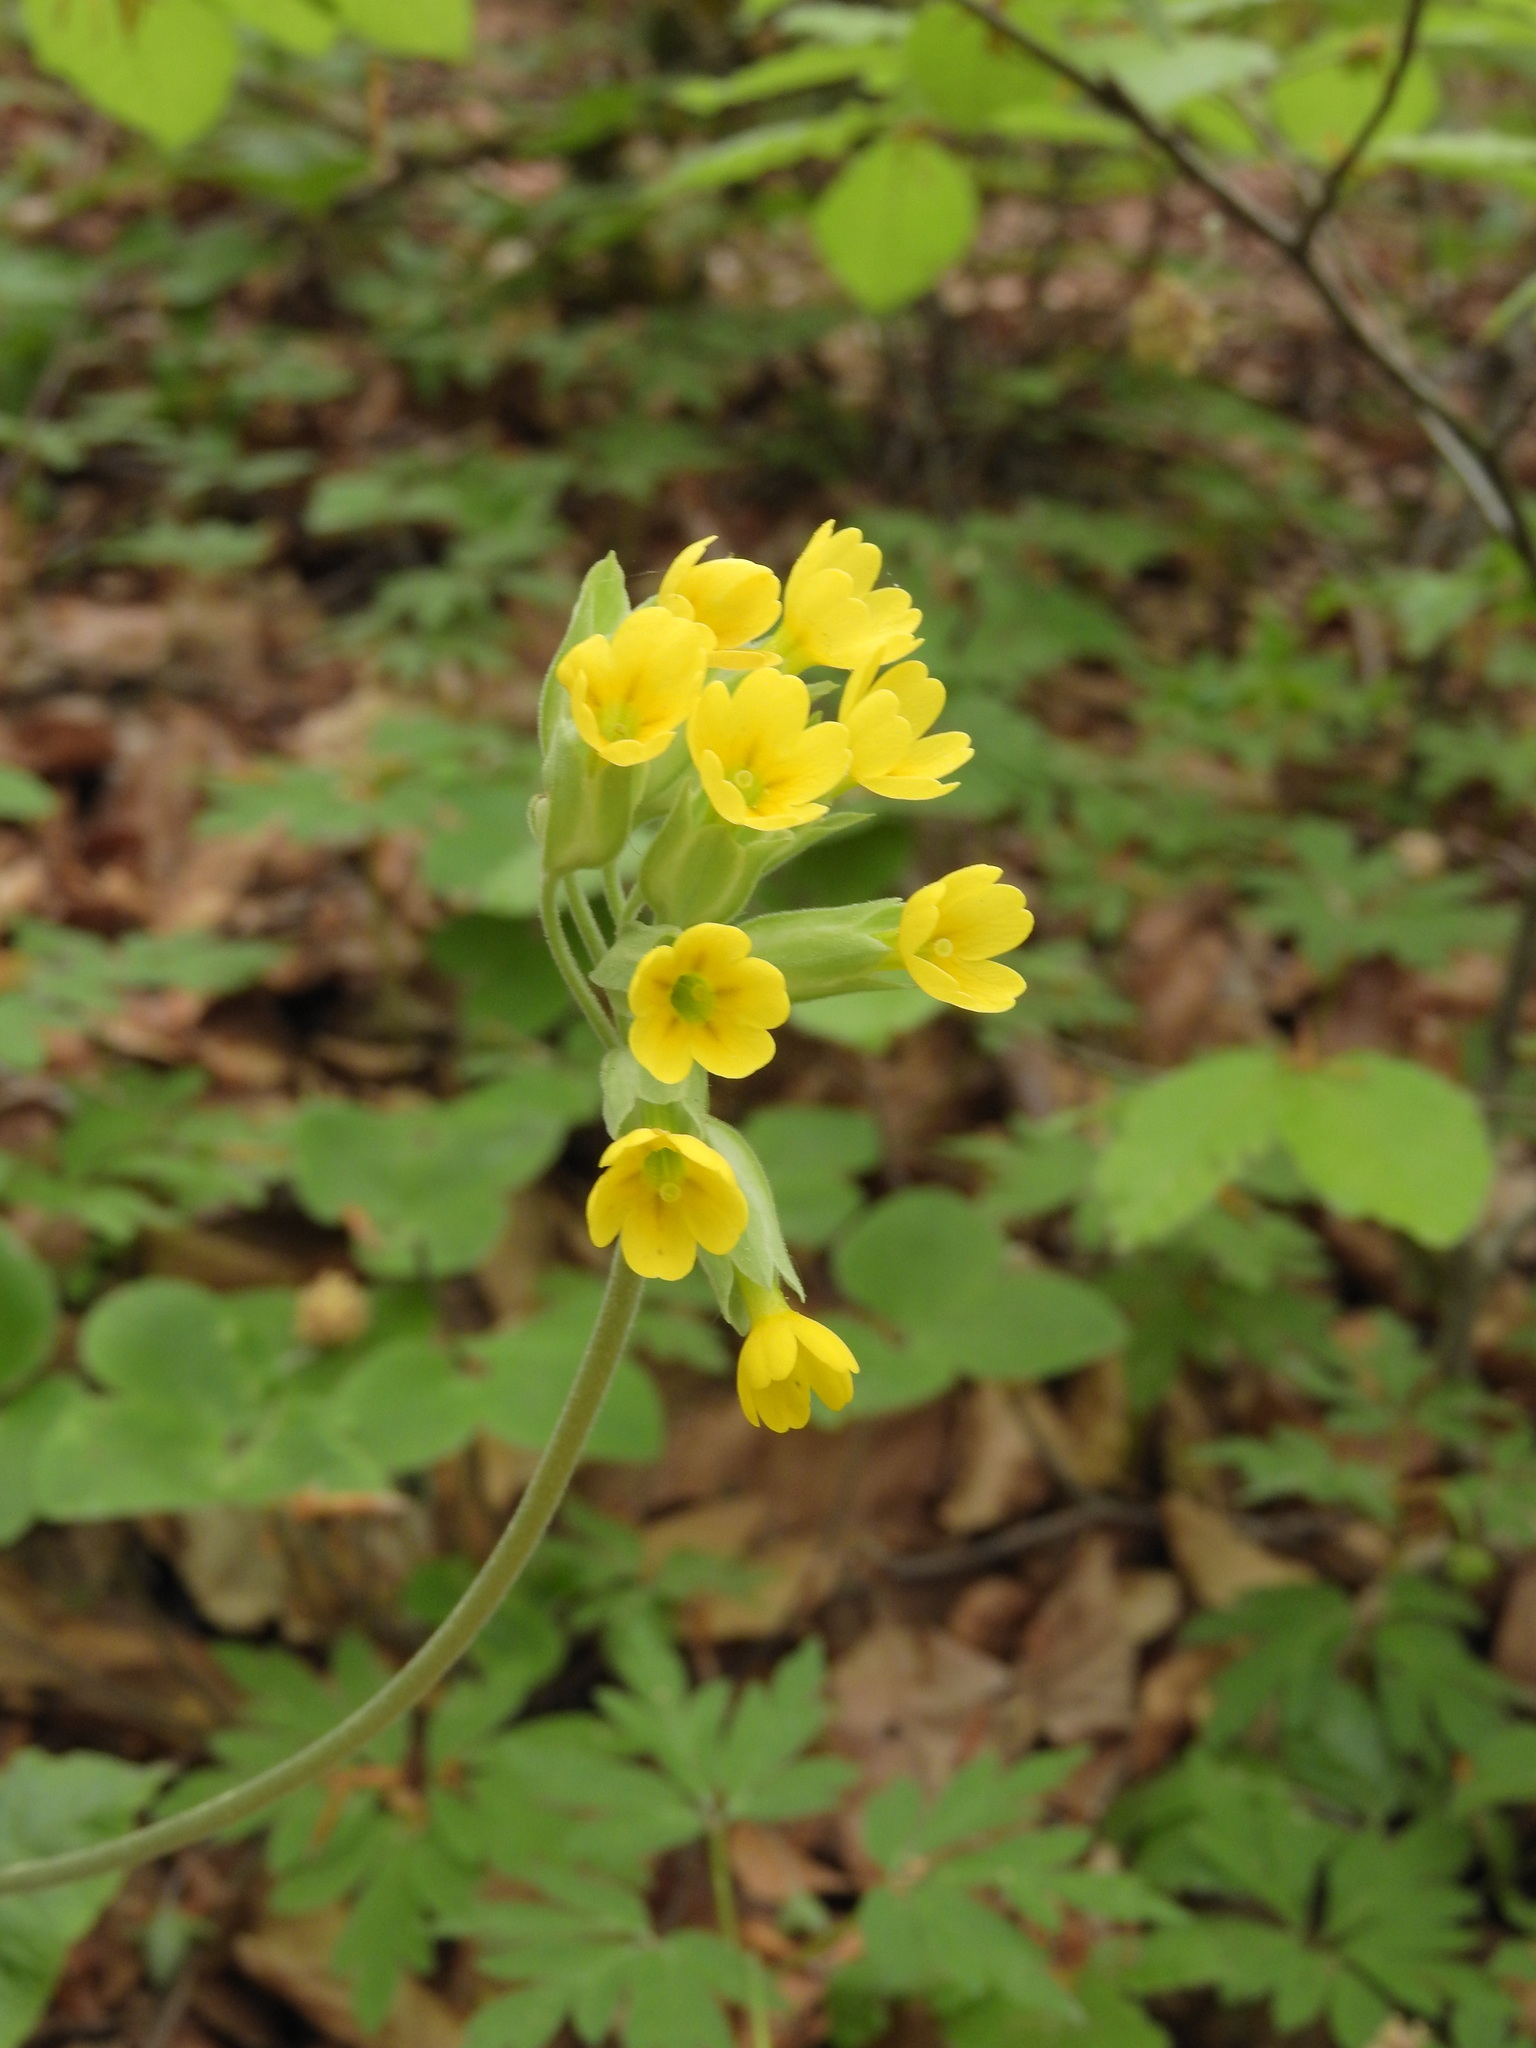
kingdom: Plantae
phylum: Tracheophyta
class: Magnoliopsida
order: Ericales
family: Primulaceae
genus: Primula
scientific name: Primula veris
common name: Cowslip
